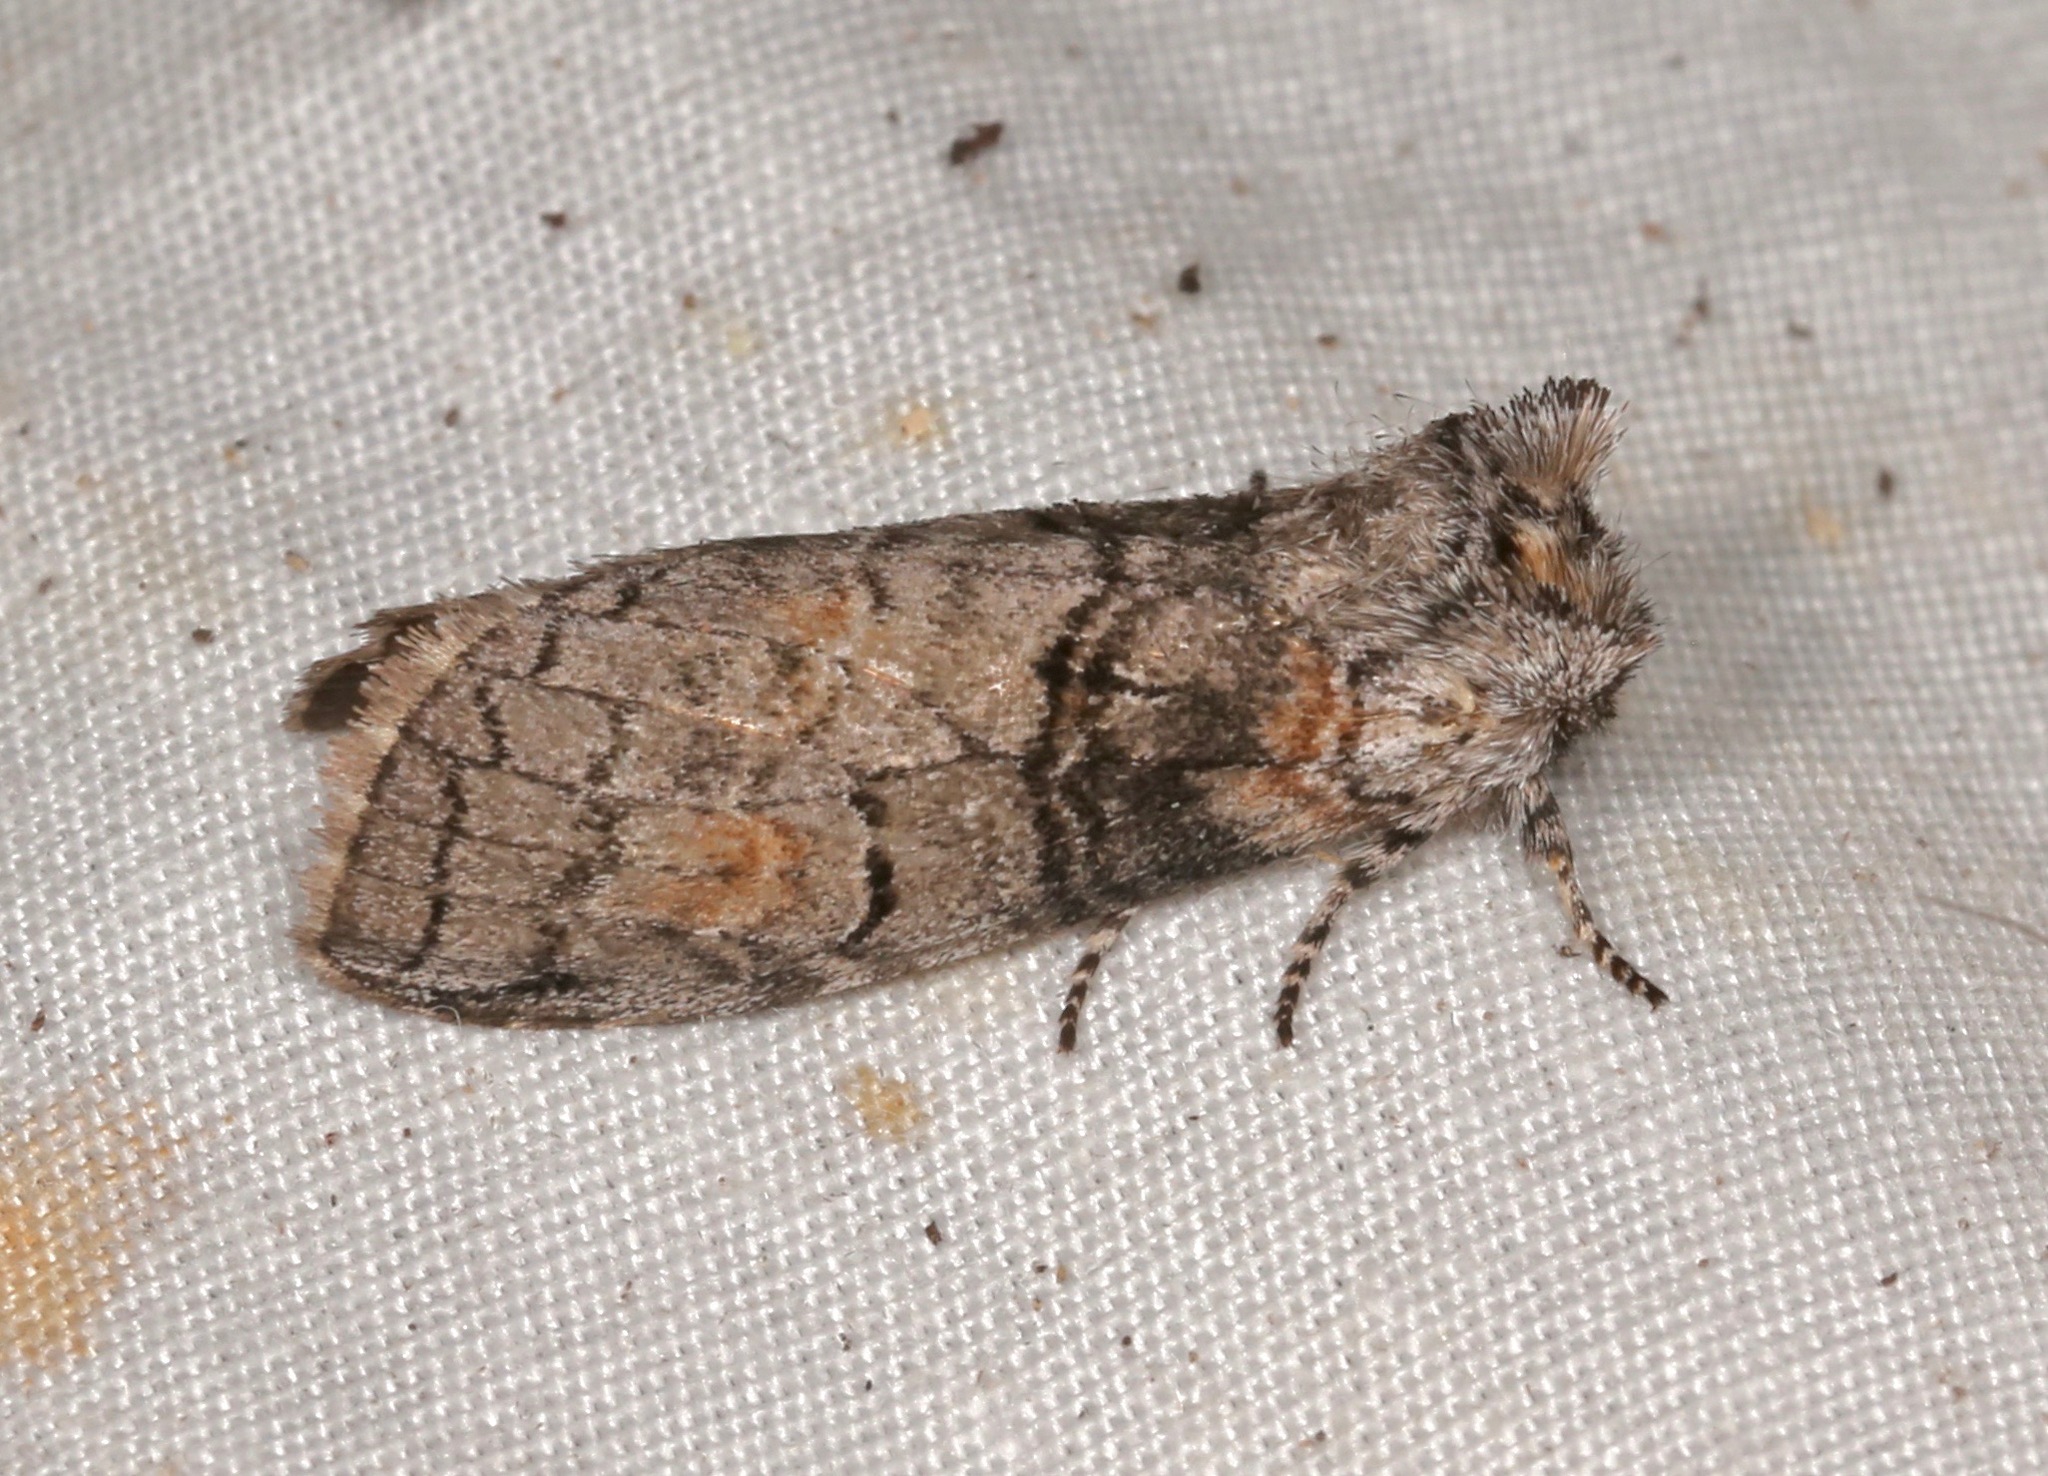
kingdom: Animalia
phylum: Arthropoda
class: Insecta
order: Lepidoptera
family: Notodontidae
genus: Afilia
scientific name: Afilia oslari
